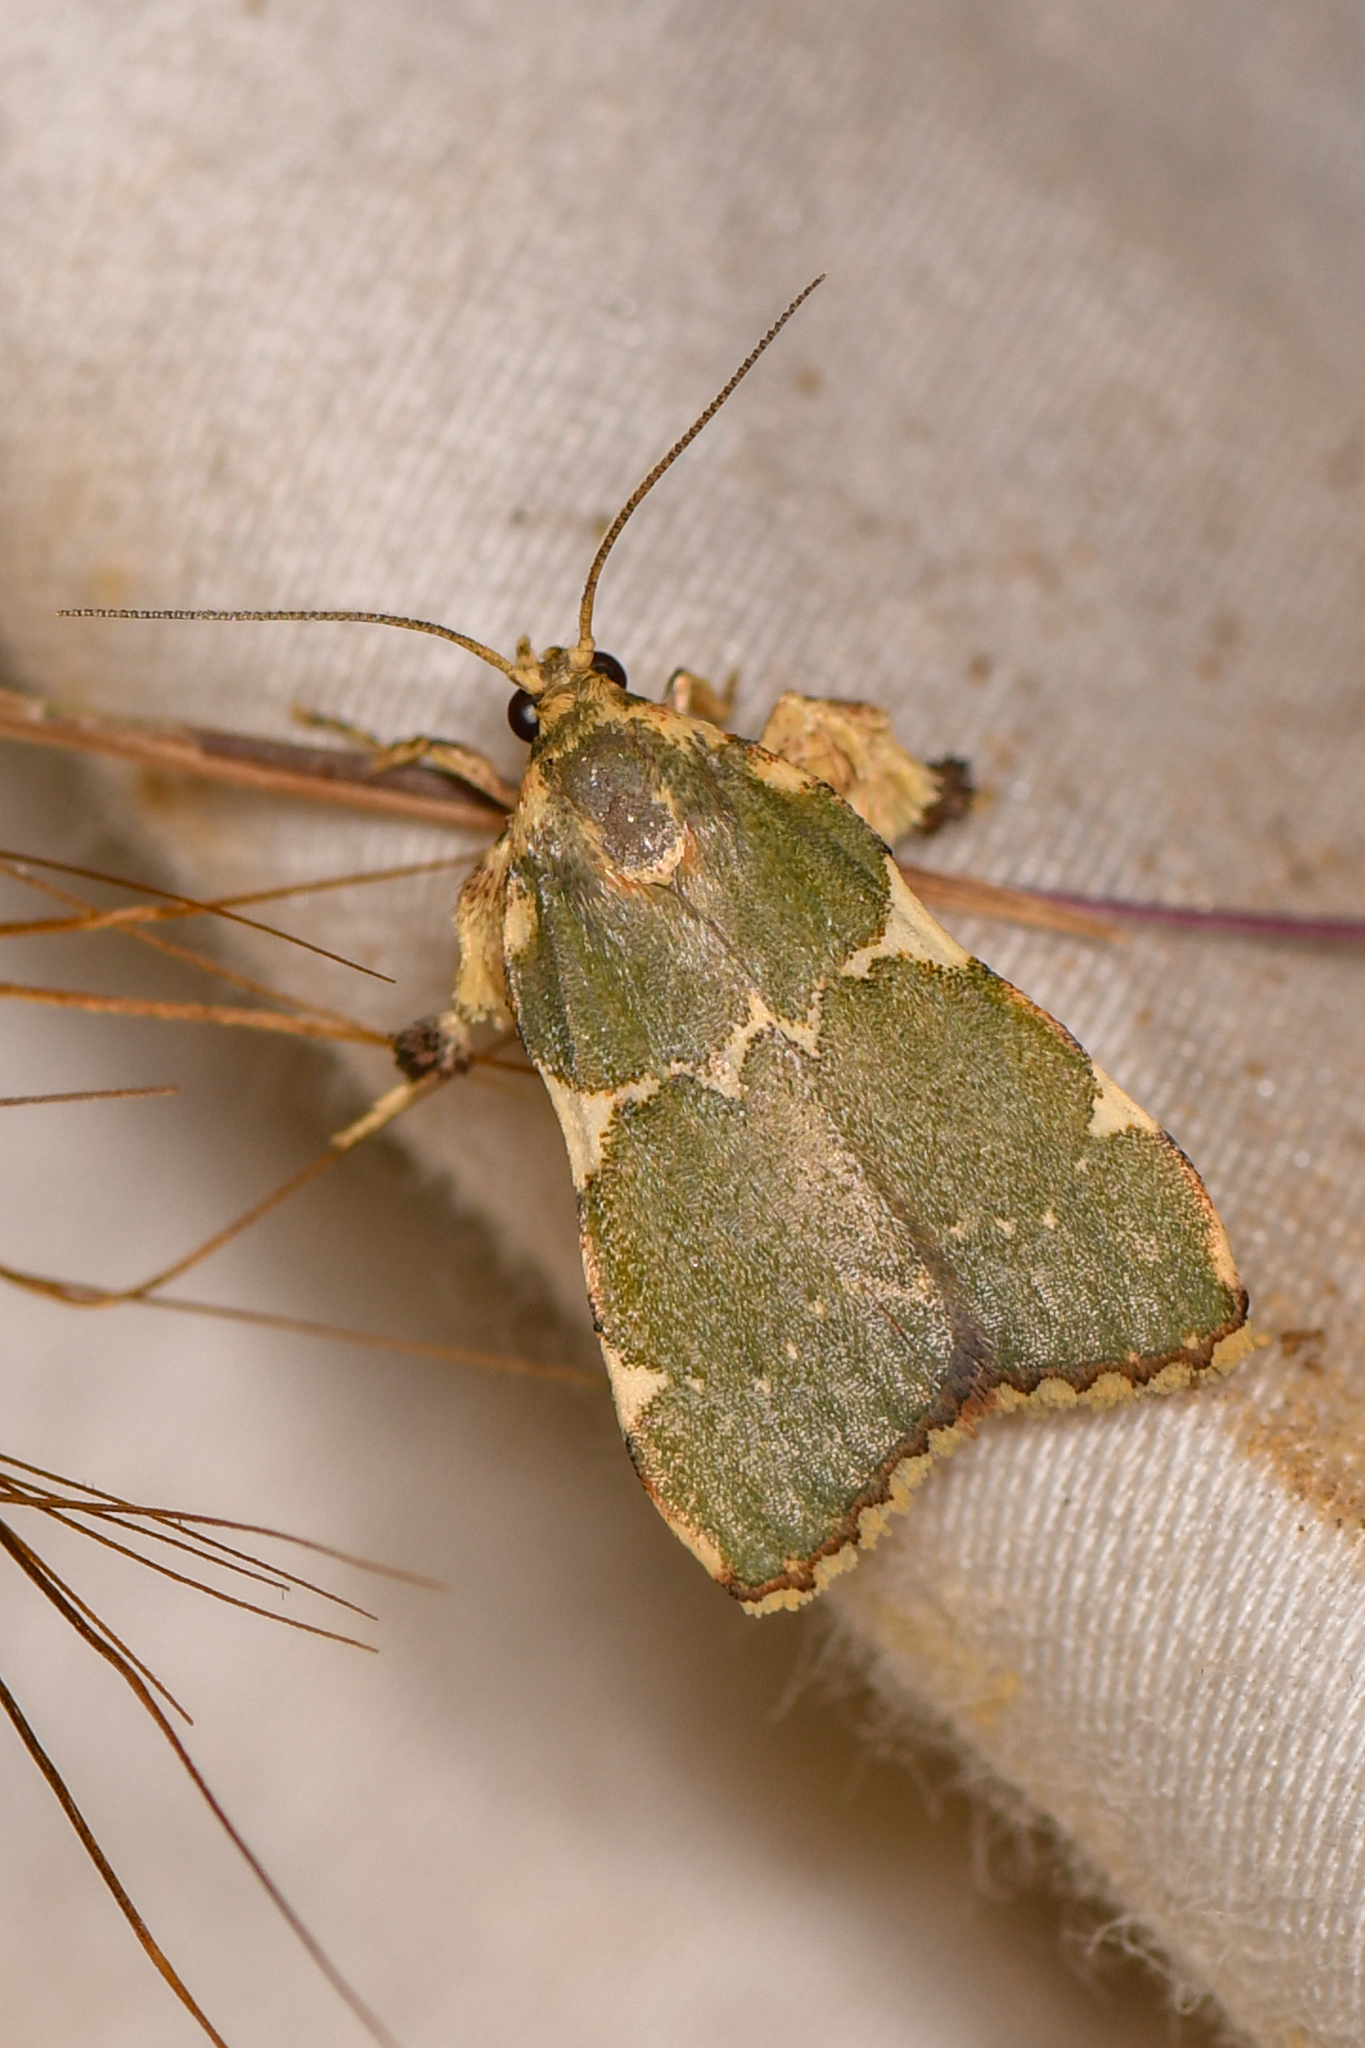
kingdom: Animalia
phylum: Arthropoda
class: Insecta
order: Lepidoptera
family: Pyralidae
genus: Parachma
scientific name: Parachma rufoflavalis
